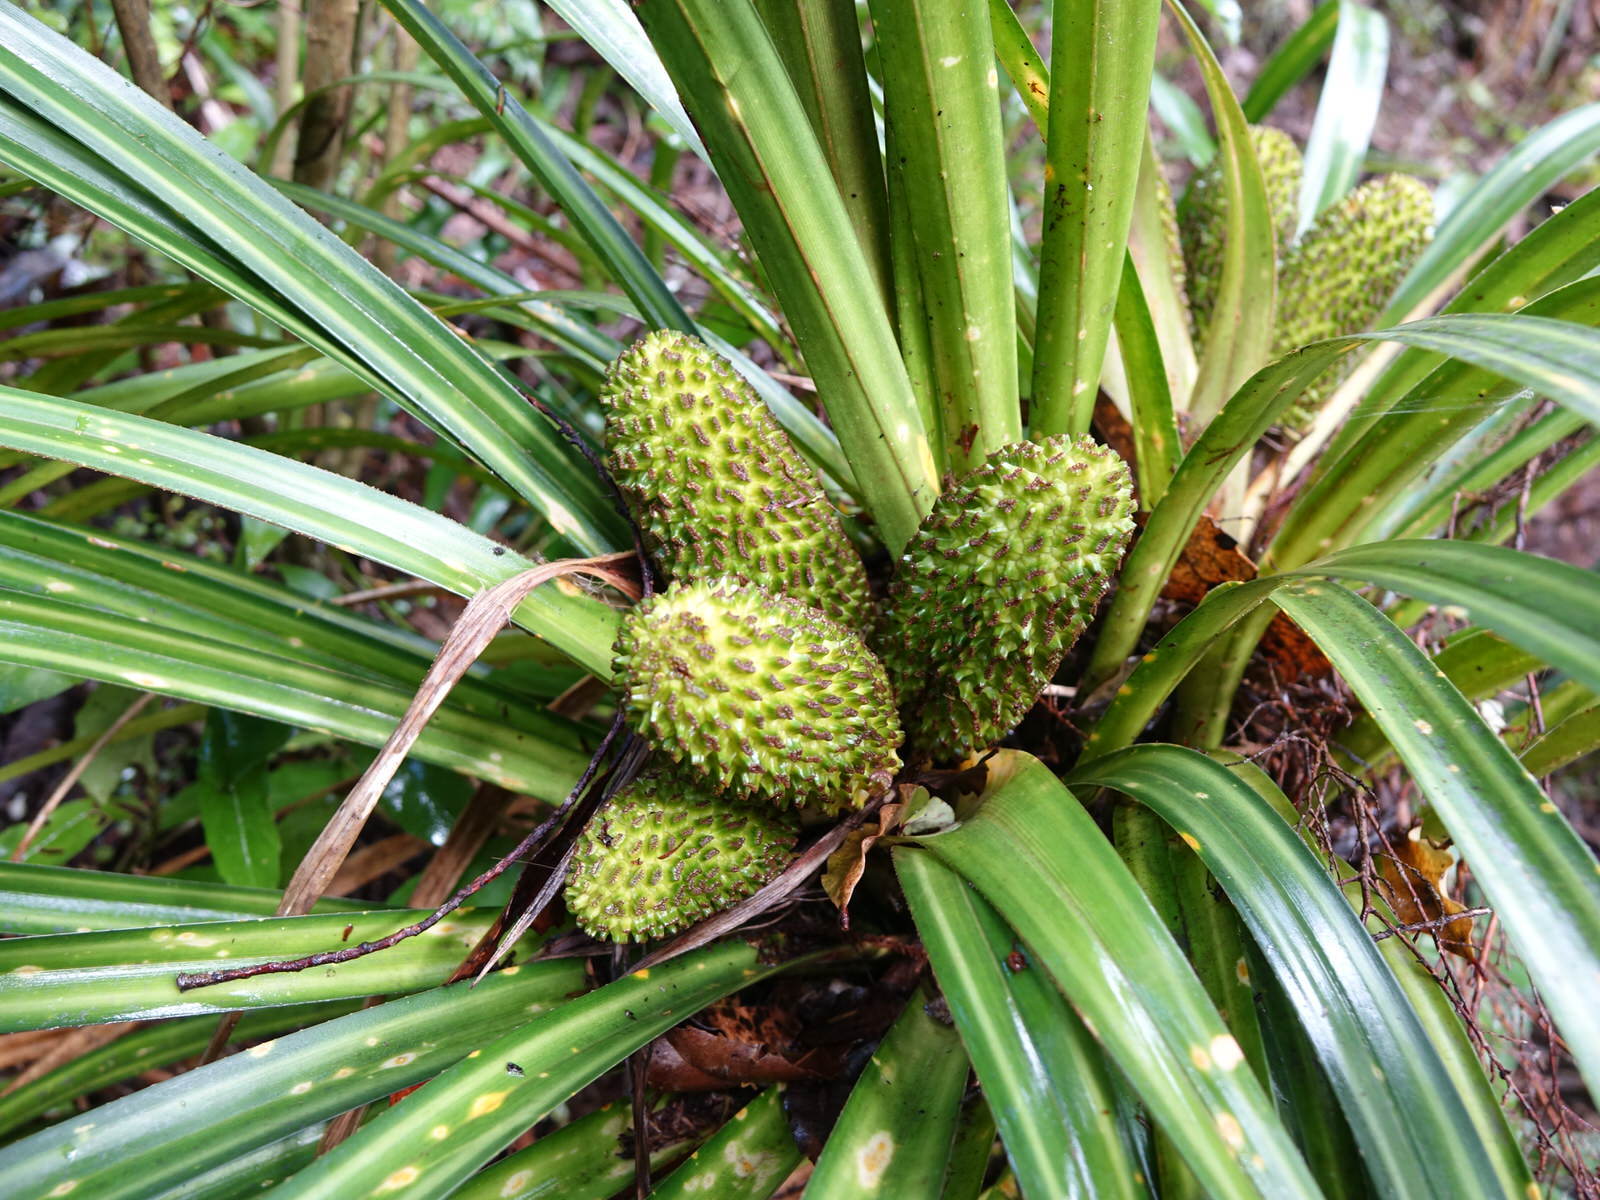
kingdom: Plantae
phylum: Tracheophyta
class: Liliopsida
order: Pandanales
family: Pandanaceae
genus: Freycinetia
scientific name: Freycinetia banksii
